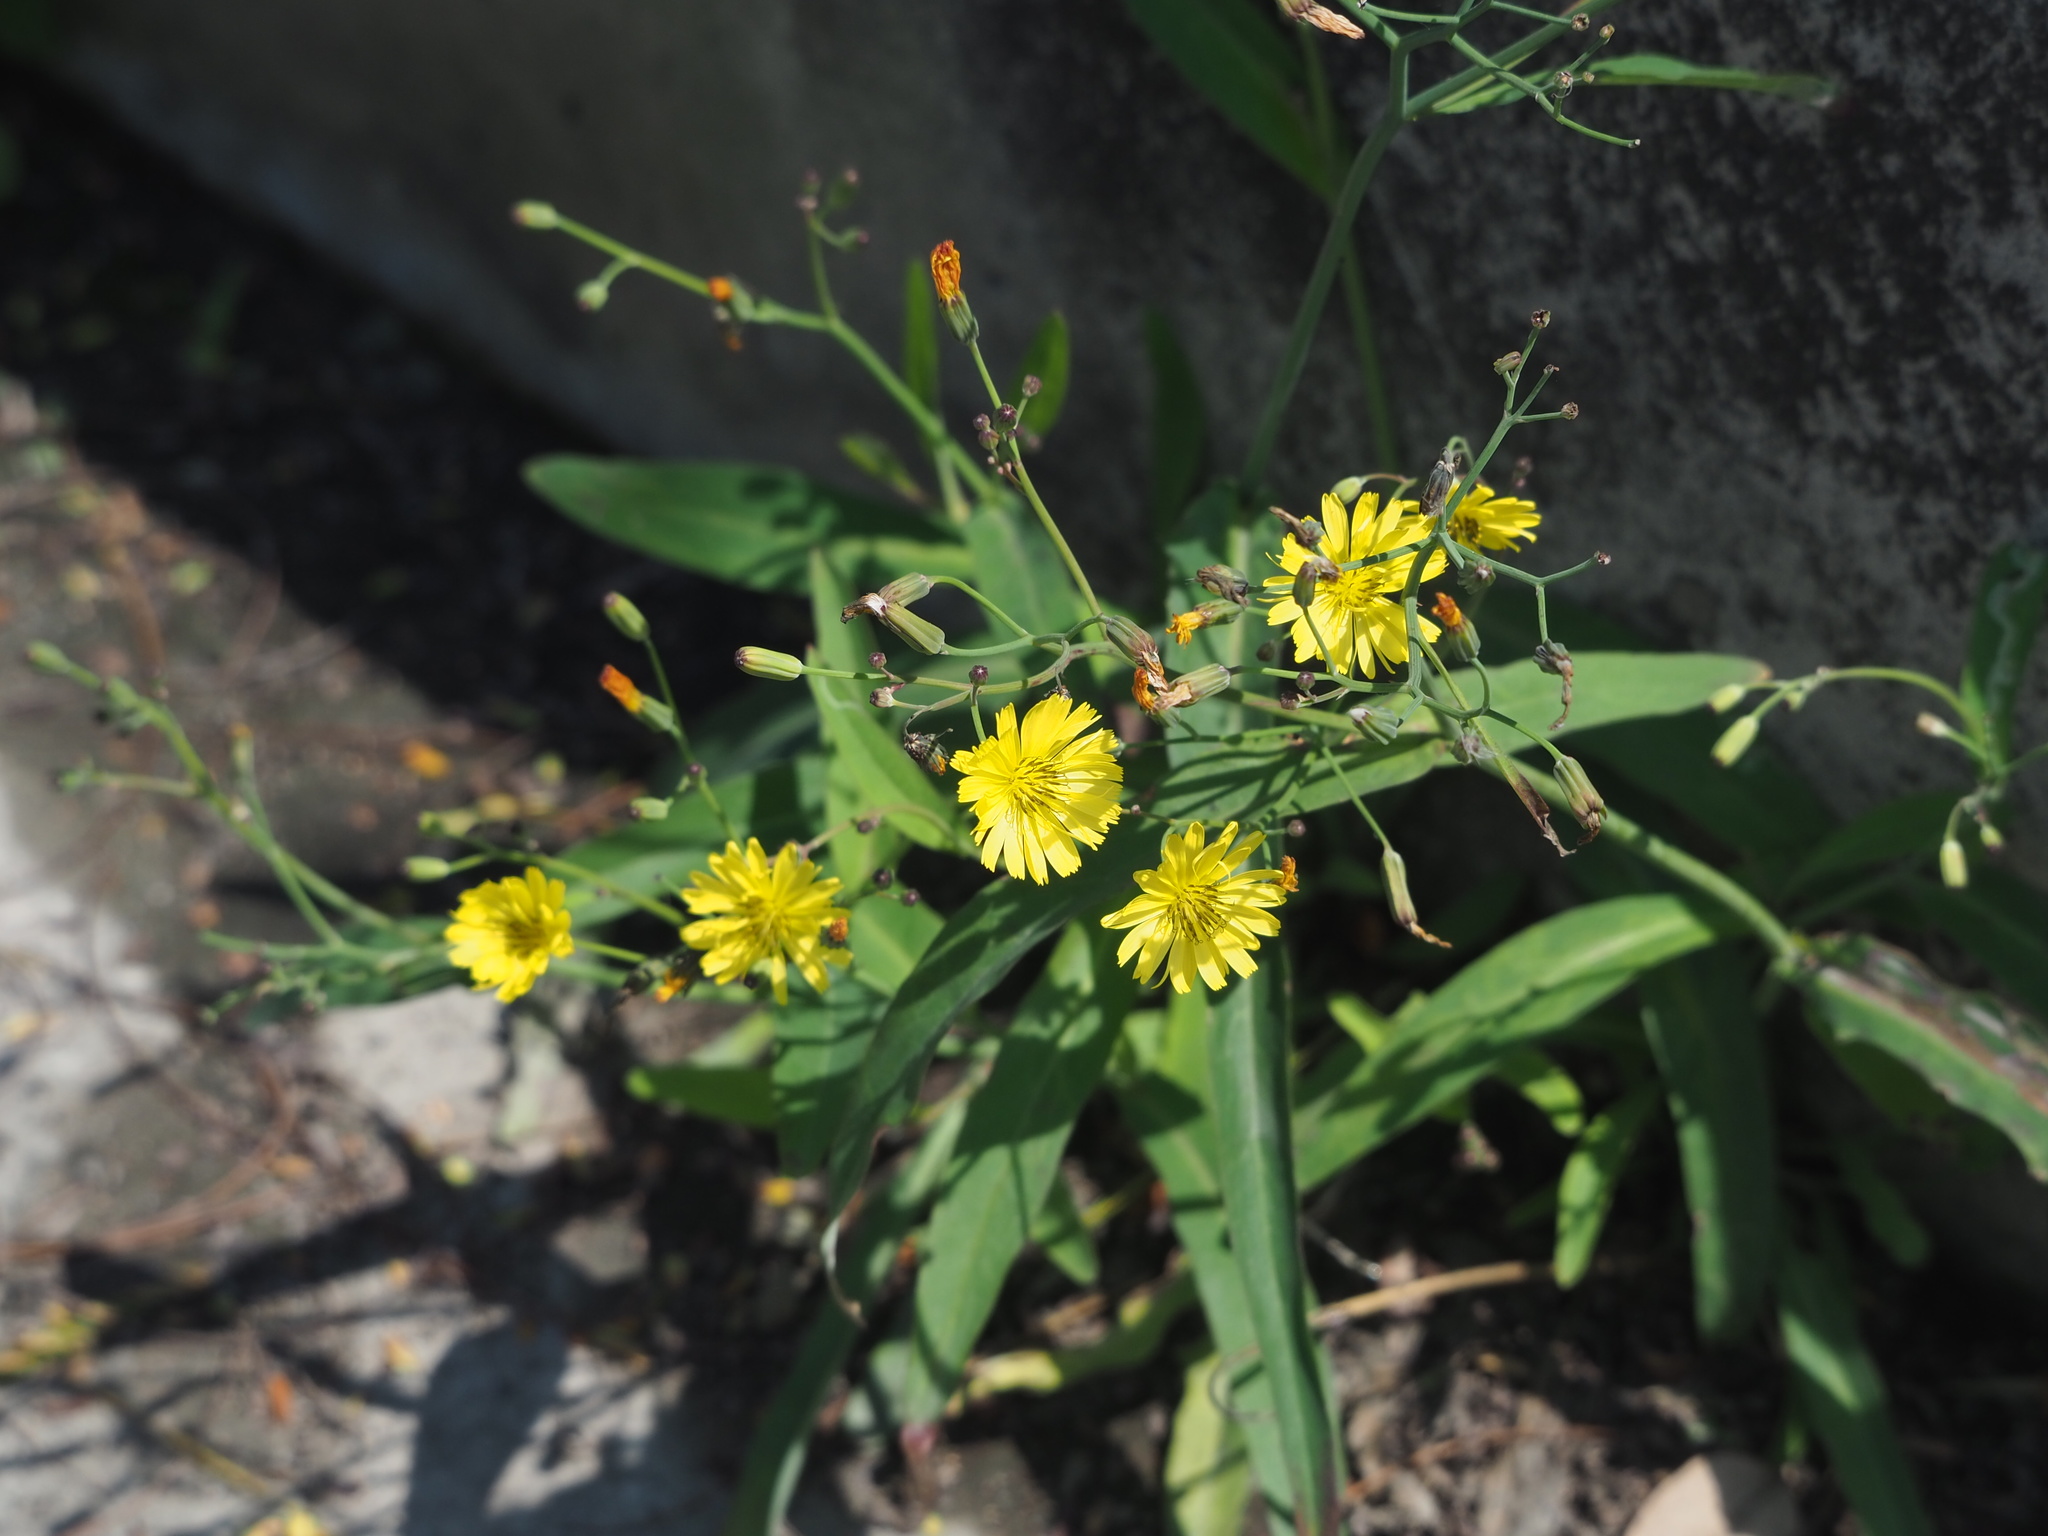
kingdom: Plantae
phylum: Tracheophyta
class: Magnoliopsida
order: Asterales
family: Asteraceae
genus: Ixeris
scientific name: Ixeris chinensis
